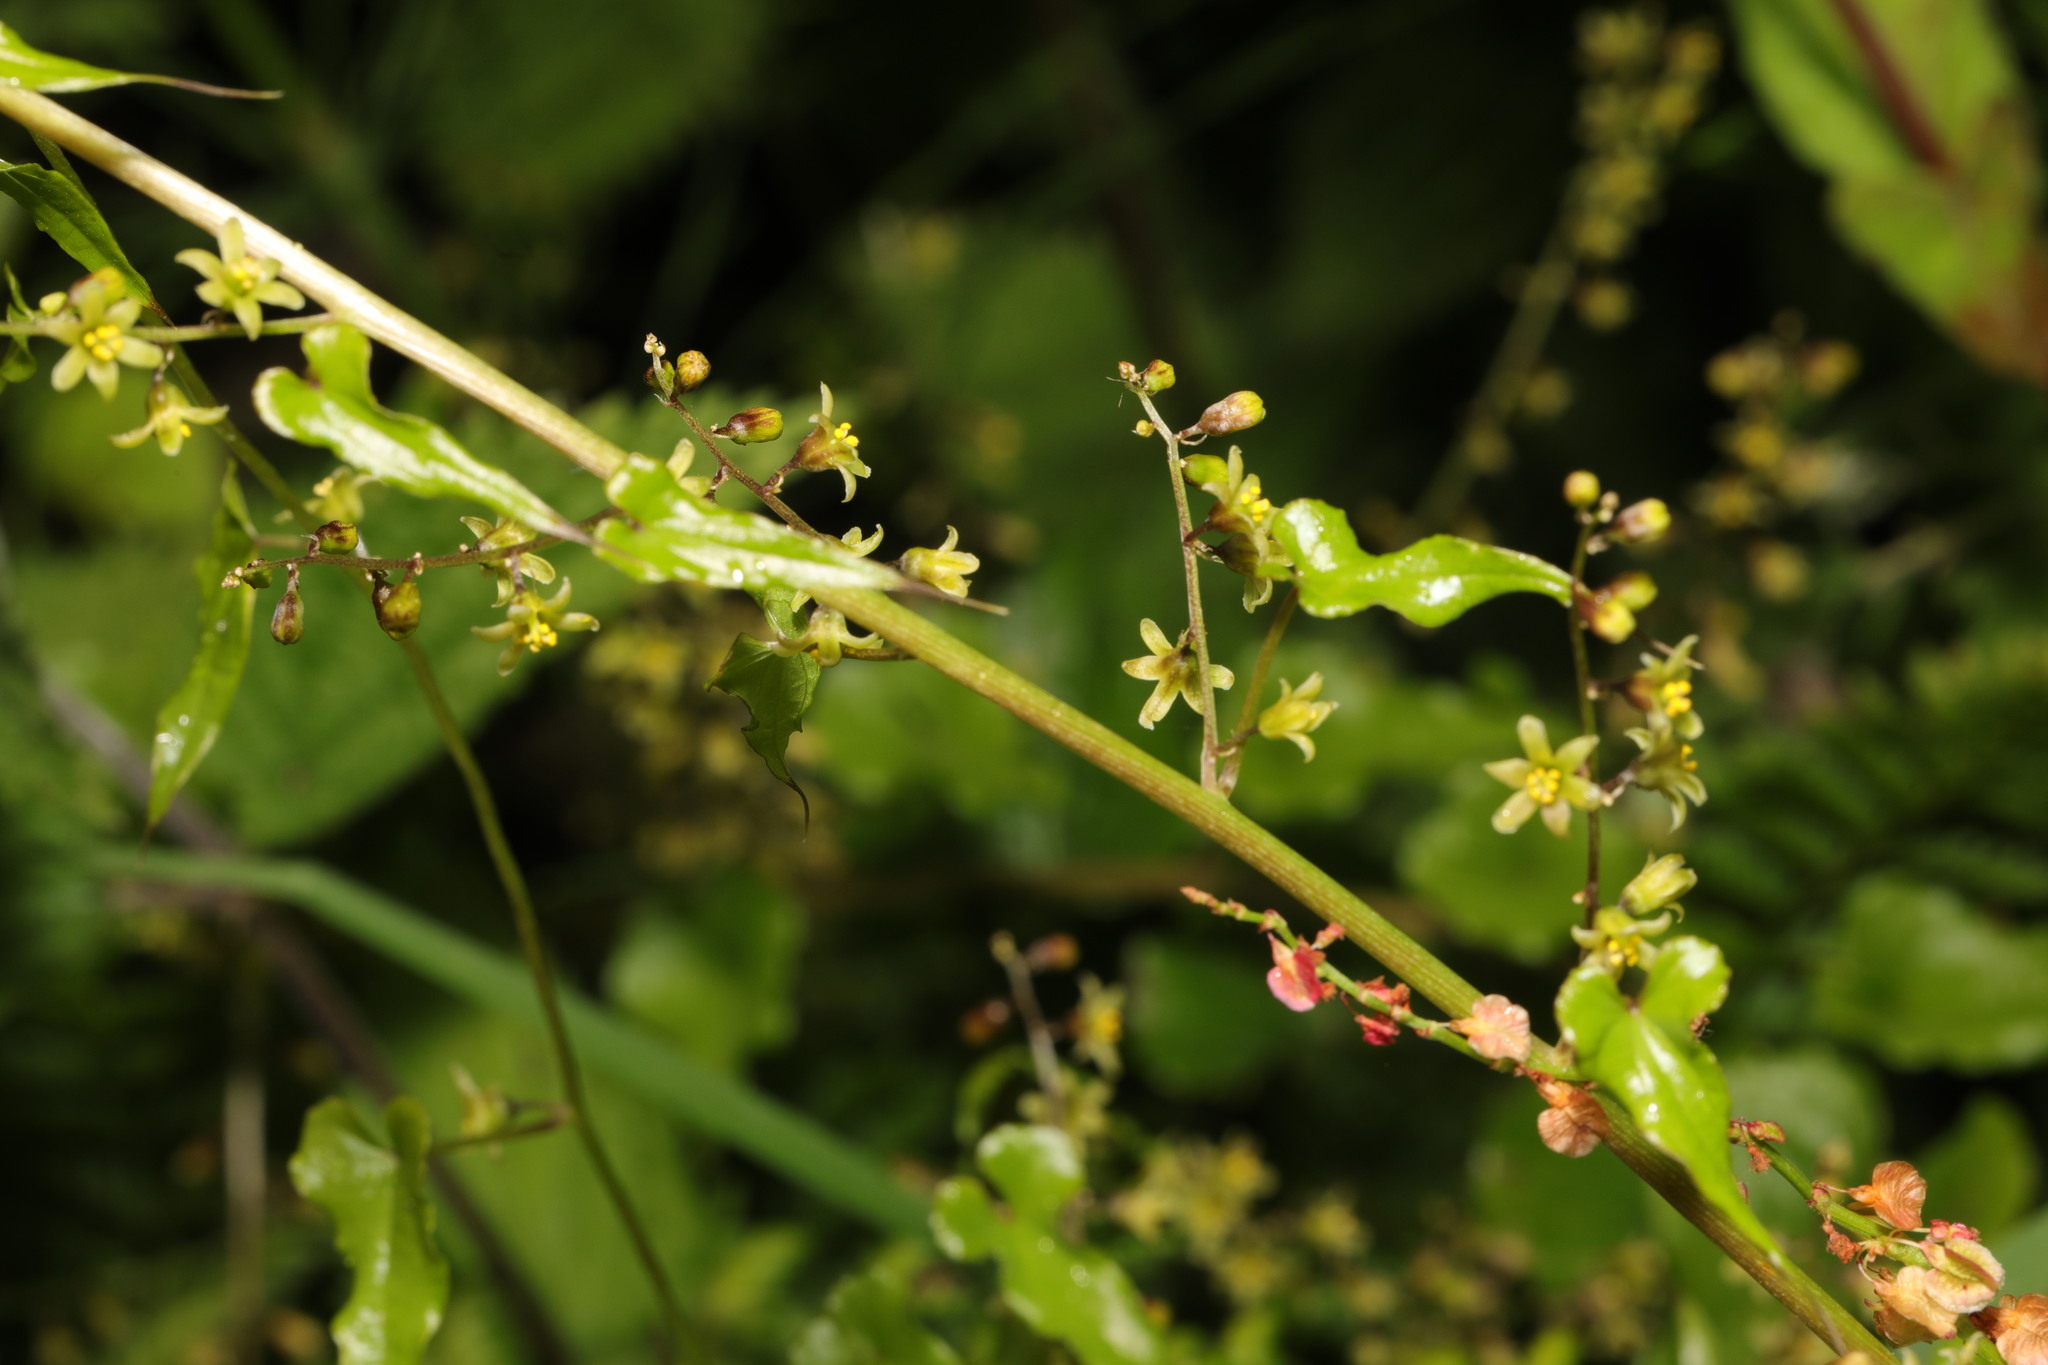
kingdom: Plantae
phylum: Tracheophyta
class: Liliopsida
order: Dioscoreales
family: Dioscoreaceae
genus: Dioscorea
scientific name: Dioscorea communis
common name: Black-bindweed
